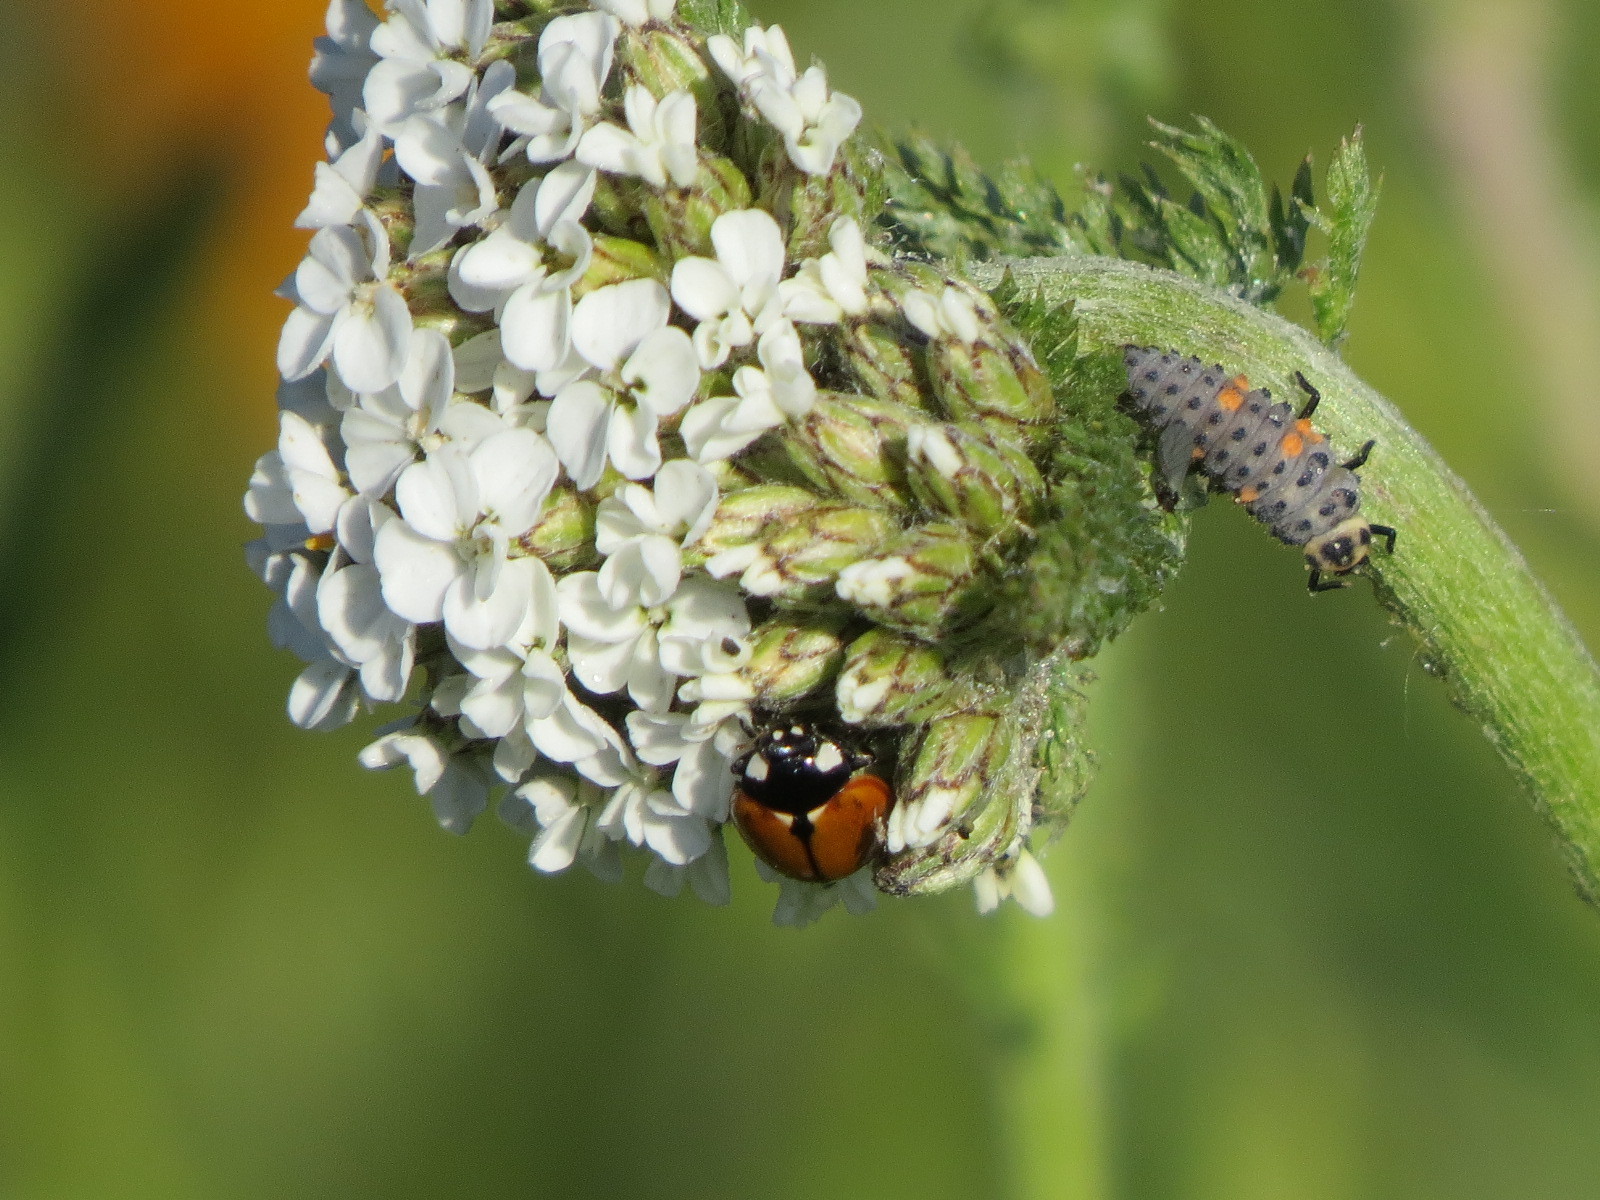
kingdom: Animalia
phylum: Arthropoda
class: Insecta
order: Coleoptera
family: Coccinellidae
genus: Coccinella
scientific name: Coccinella californica
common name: Lady beetle
